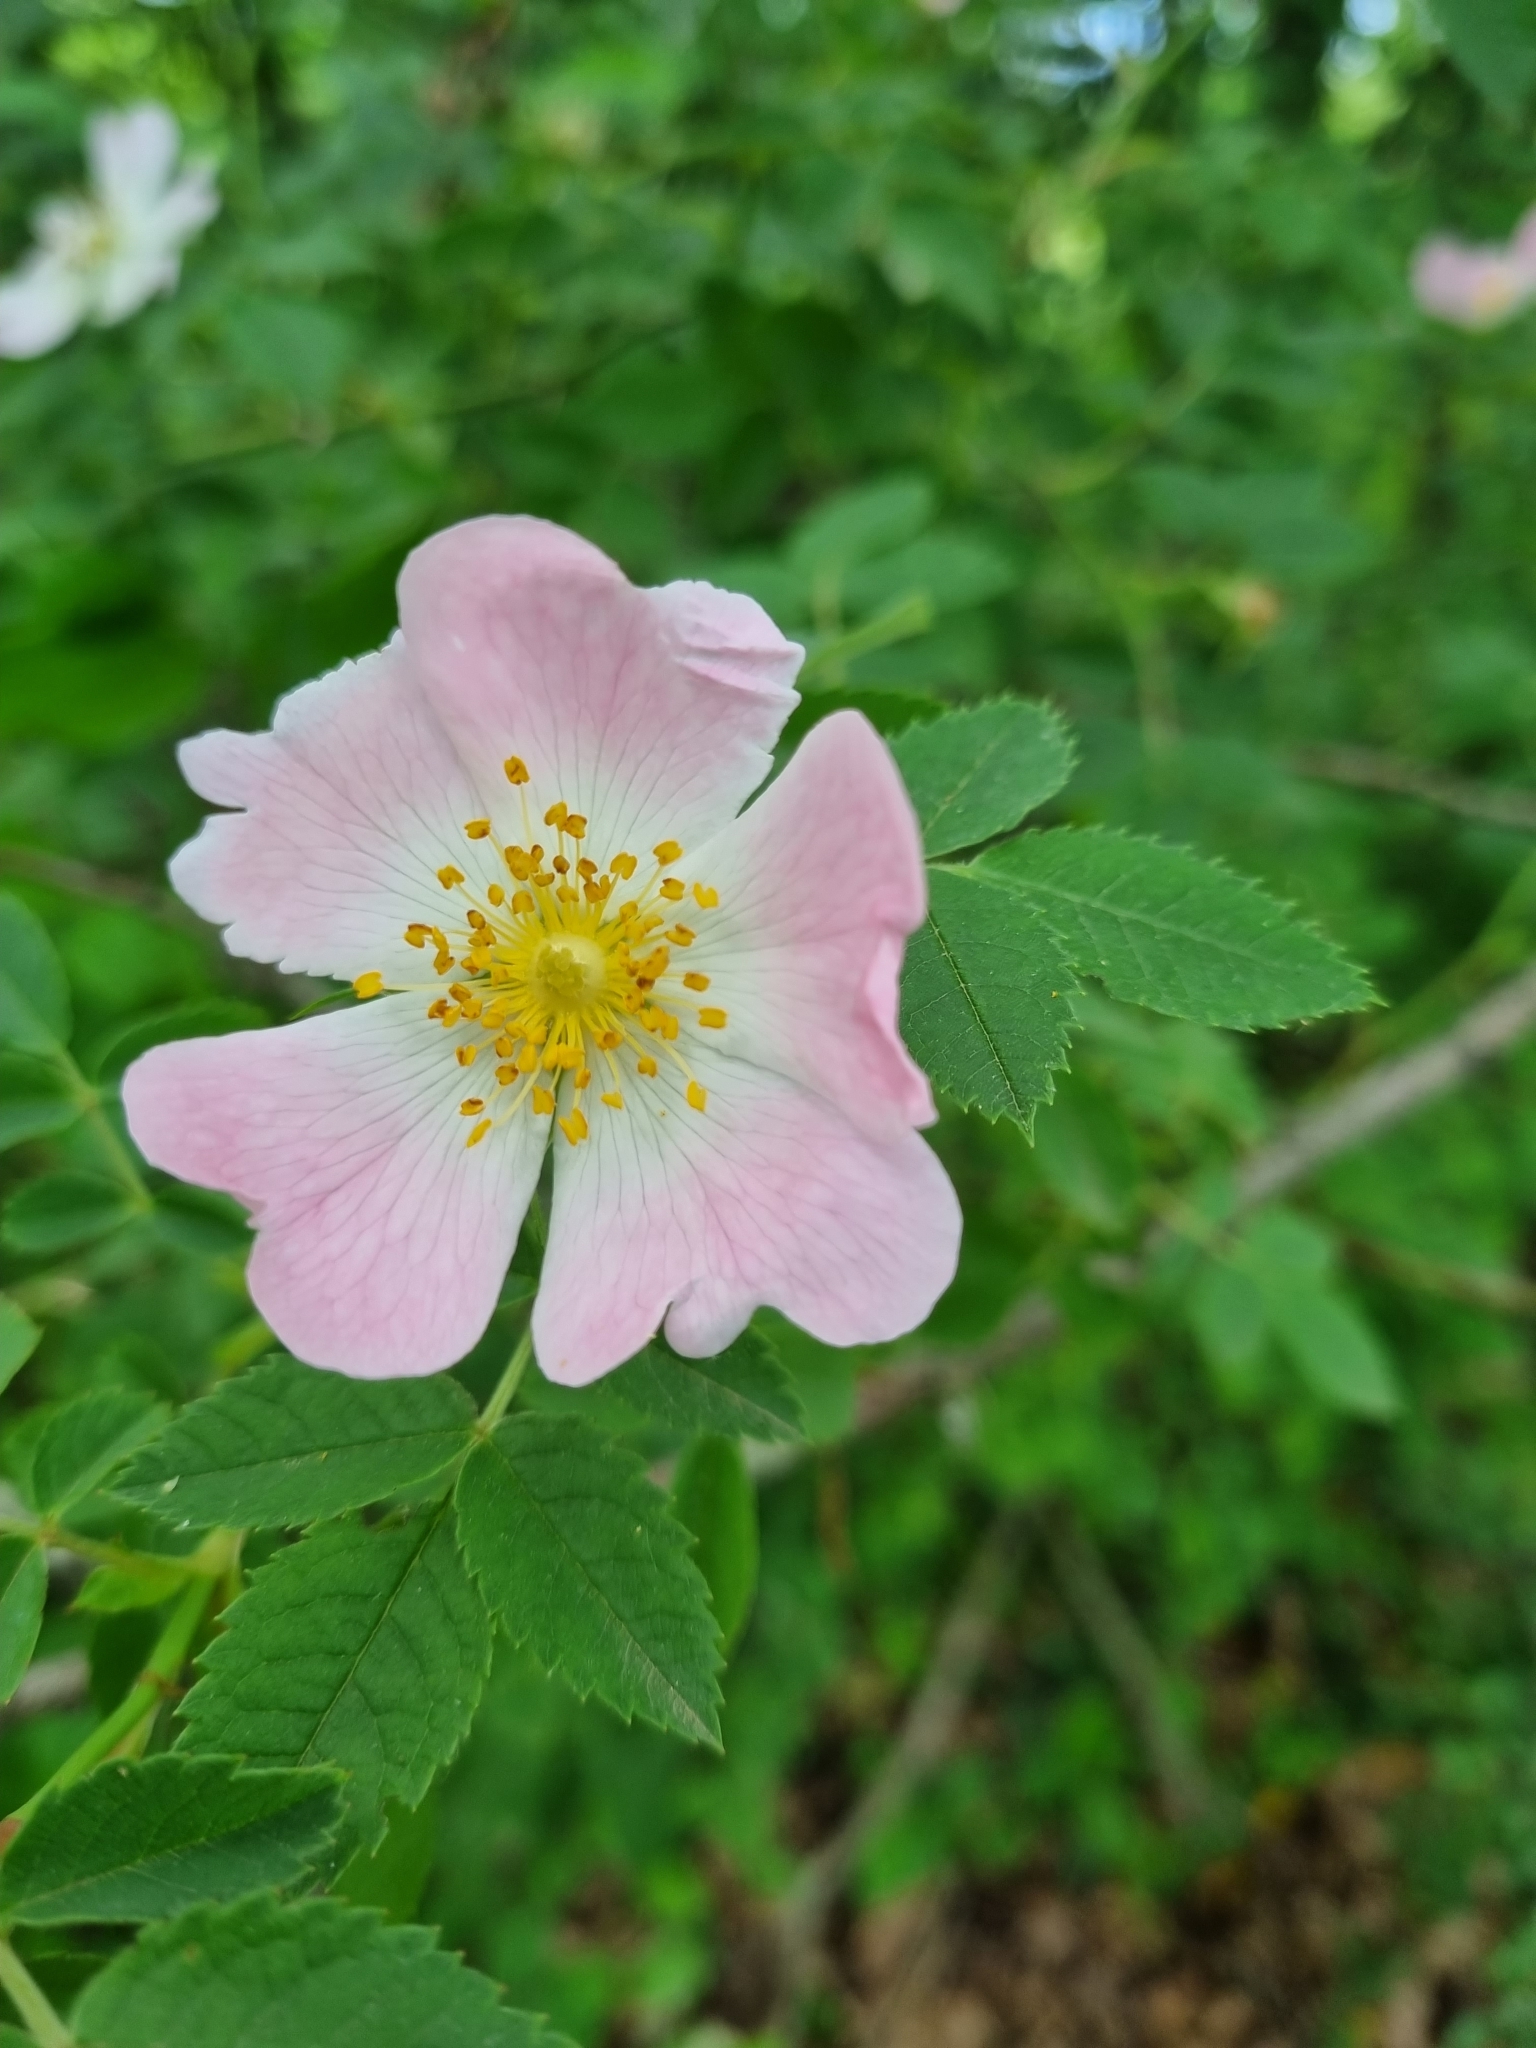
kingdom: Plantae
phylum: Tracheophyta
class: Magnoliopsida
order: Rosales
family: Rosaceae
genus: Rosa
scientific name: Rosa canina
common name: Dog rose
